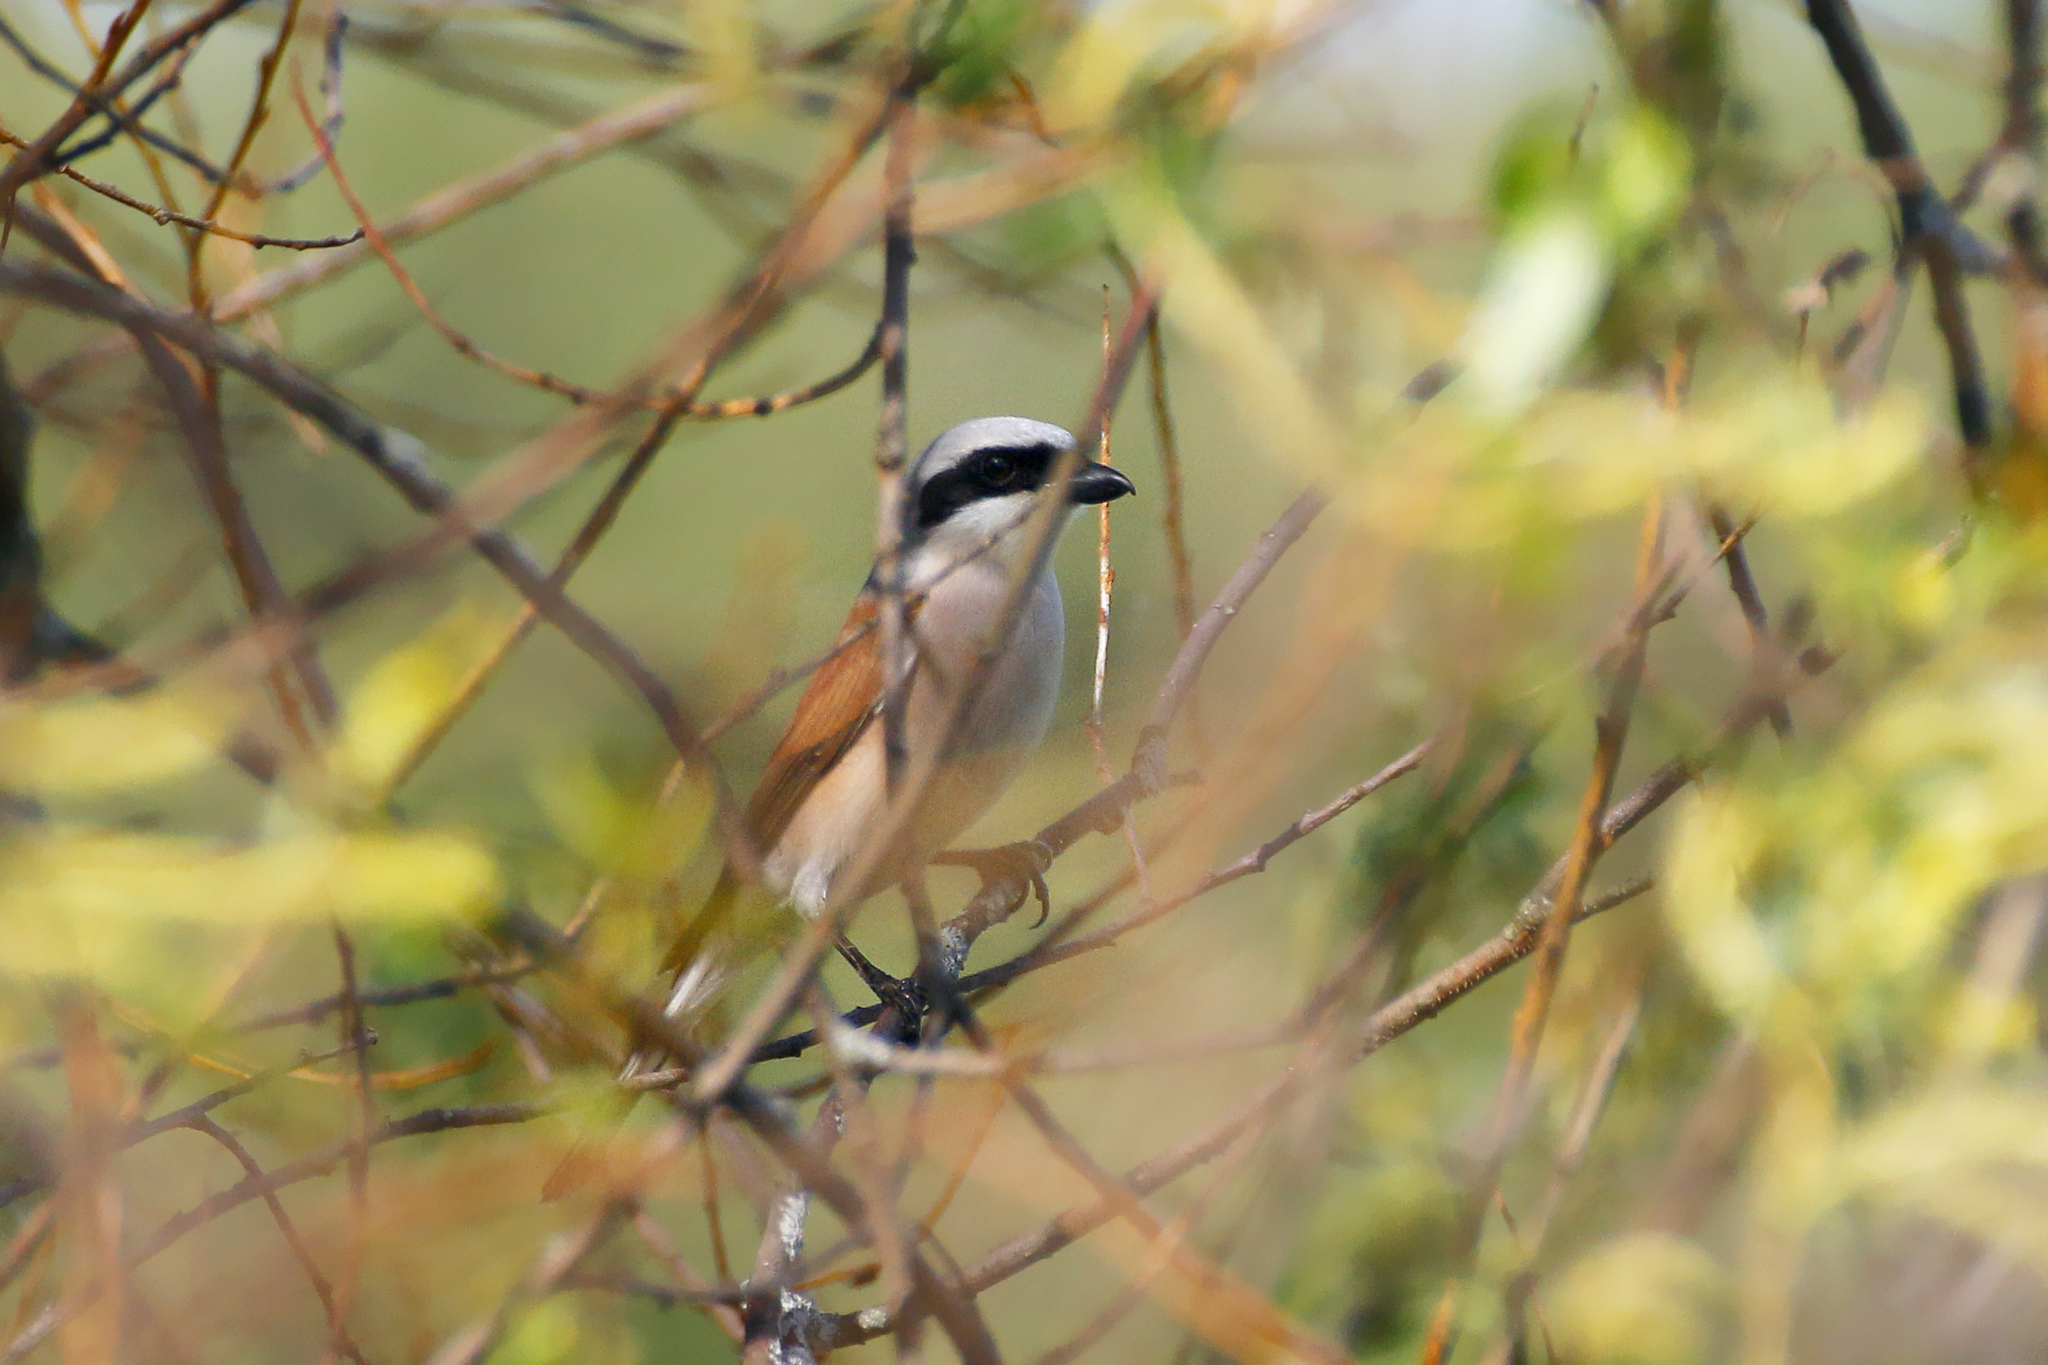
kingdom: Animalia
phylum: Chordata
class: Aves
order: Passeriformes
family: Laniidae
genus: Lanius
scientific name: Lanius collurio
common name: Red-backed shrike
